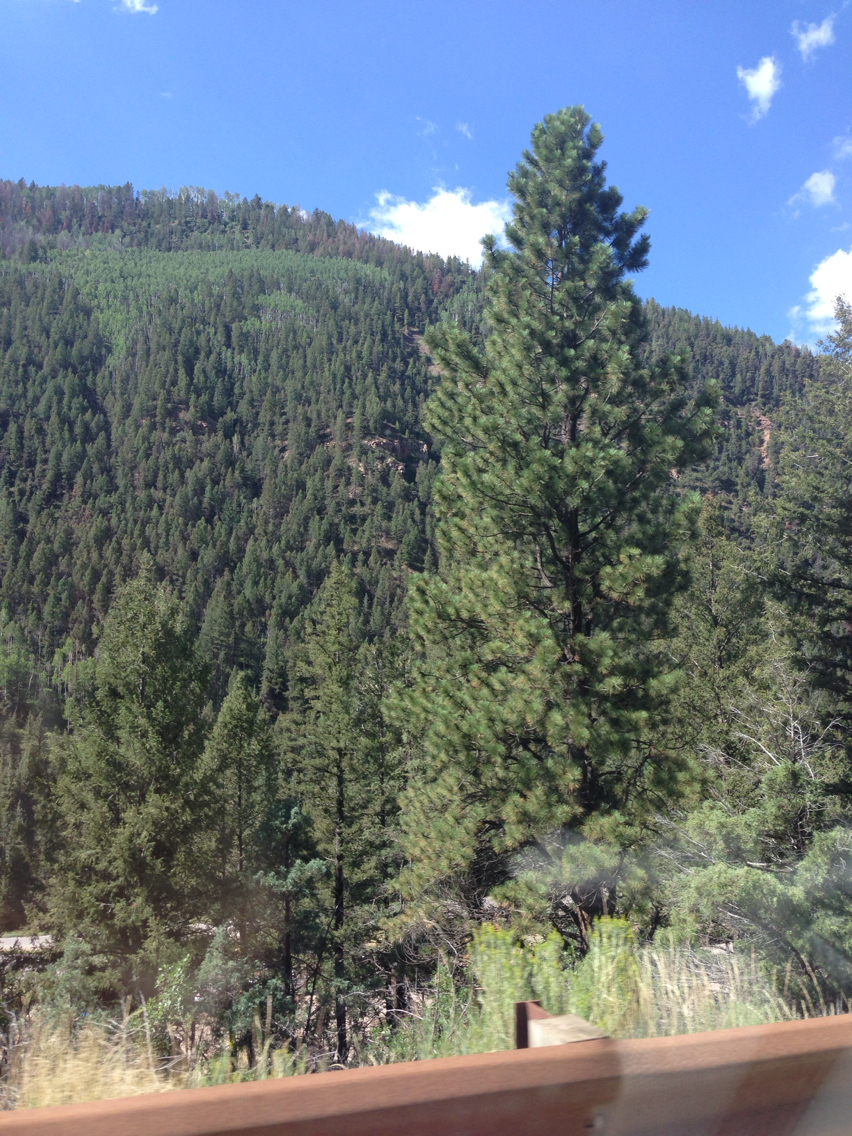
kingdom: Plantae
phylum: Tracheophyta
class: Pinopsida
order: Pinales
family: Pinaceae
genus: Pinus
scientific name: Pinus ponderosa
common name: Western yellow-pine
